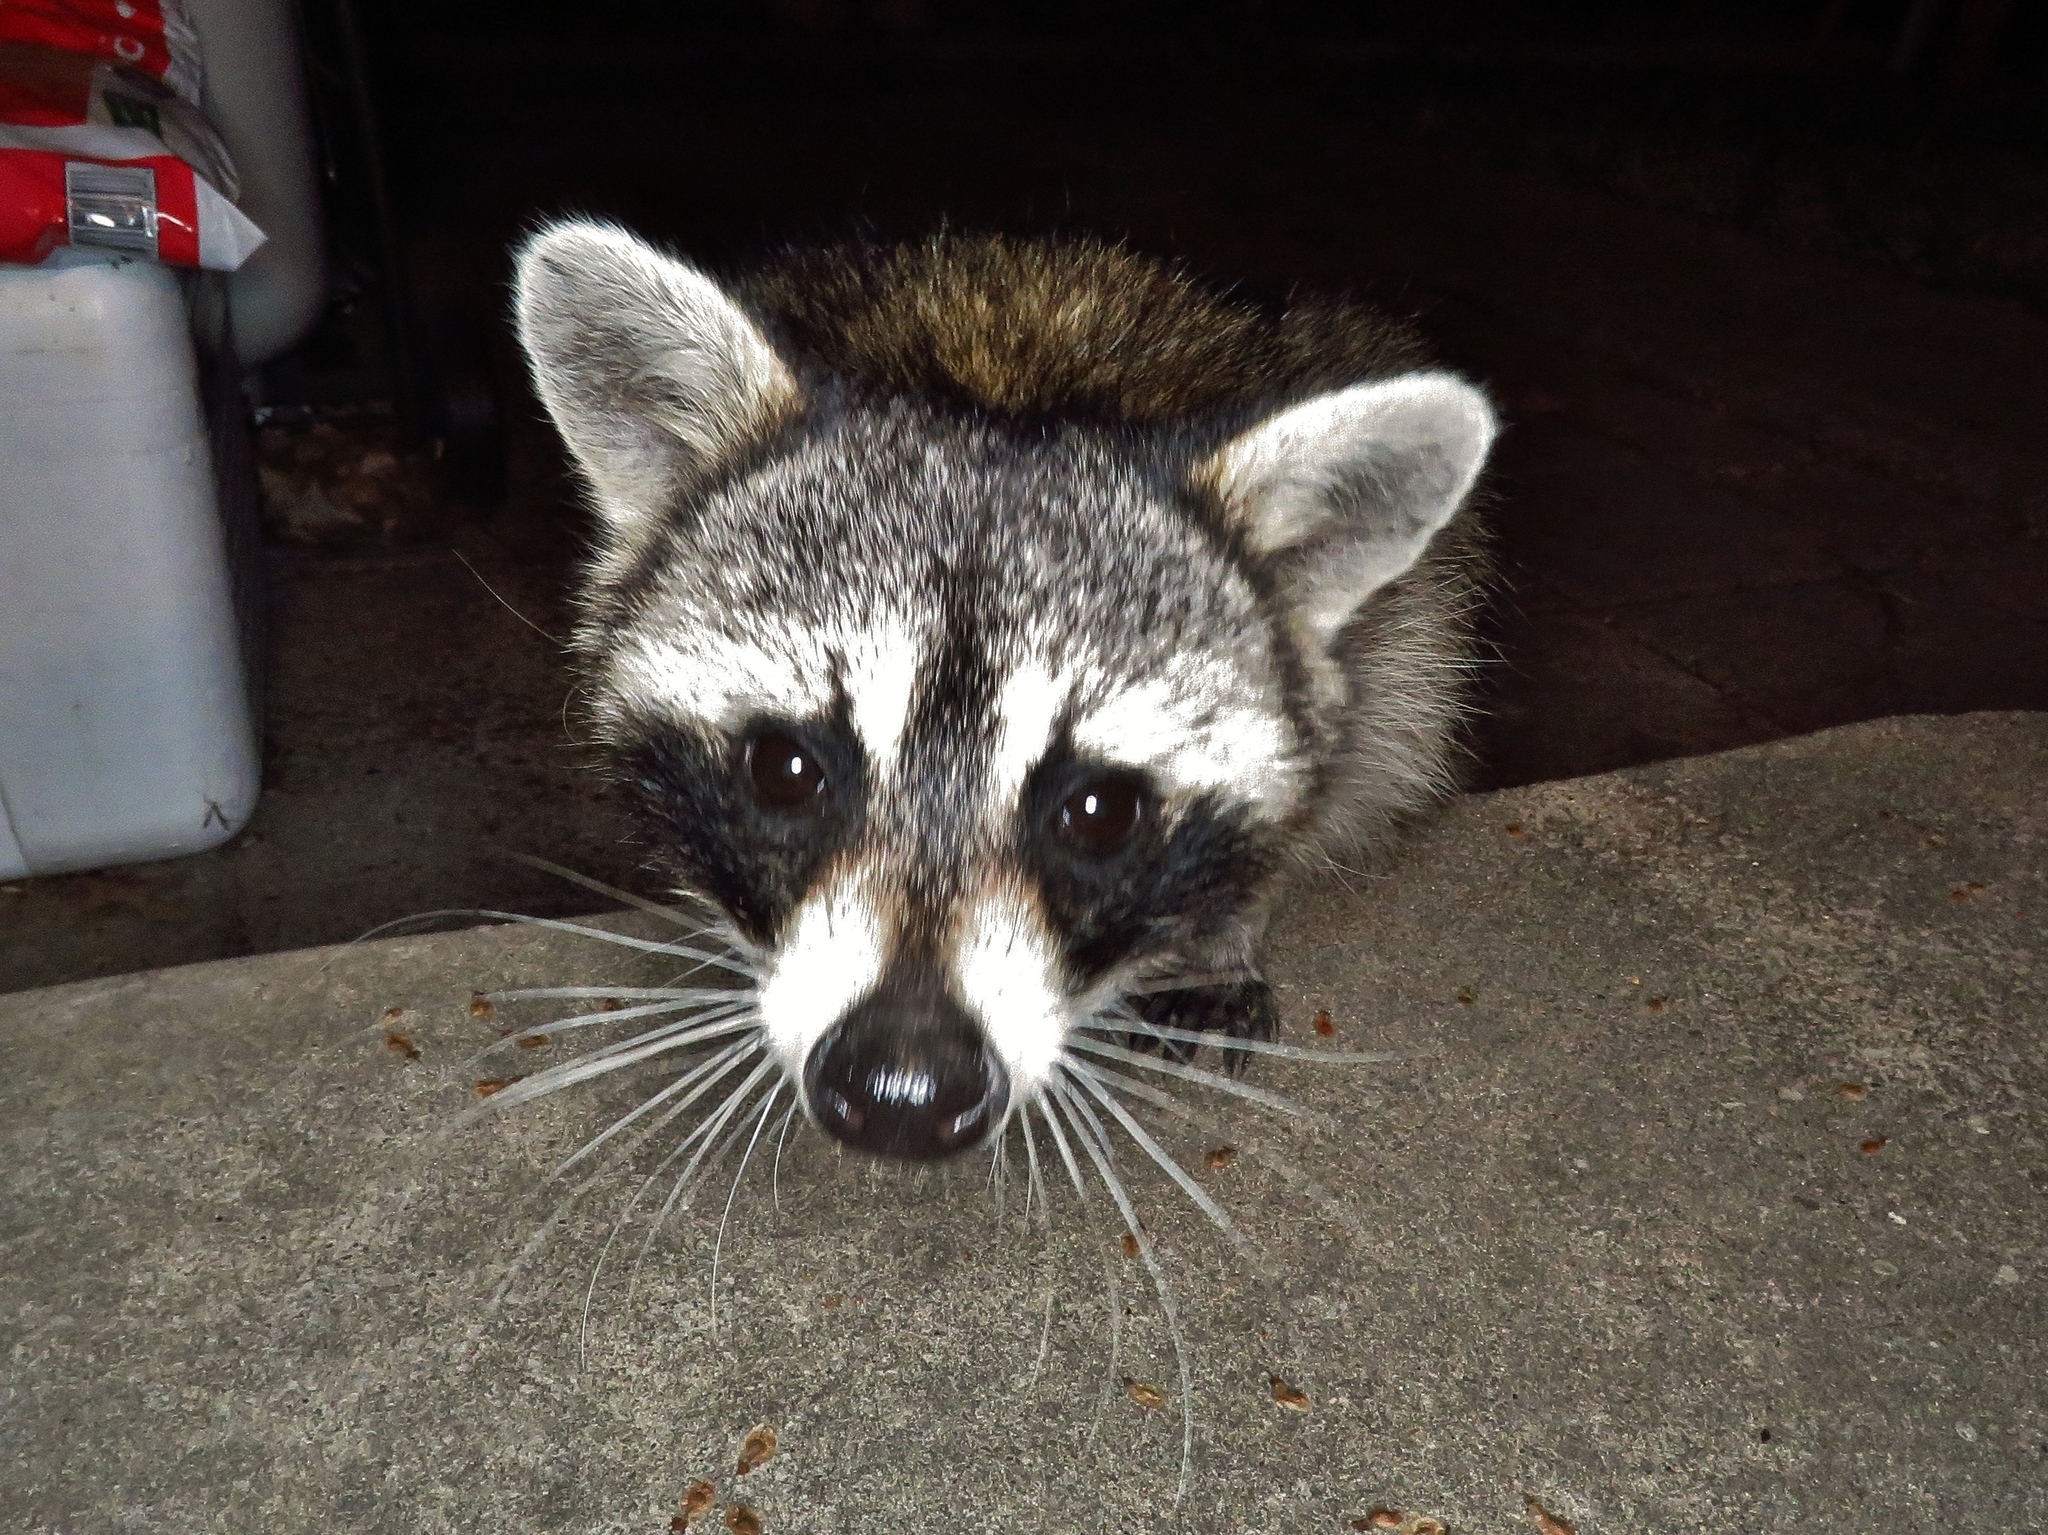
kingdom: Animalia
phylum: Chordata
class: Mammalia
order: Carnivora
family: Procyonidae
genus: Procyon
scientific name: Procyon lotor
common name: Raccoon
